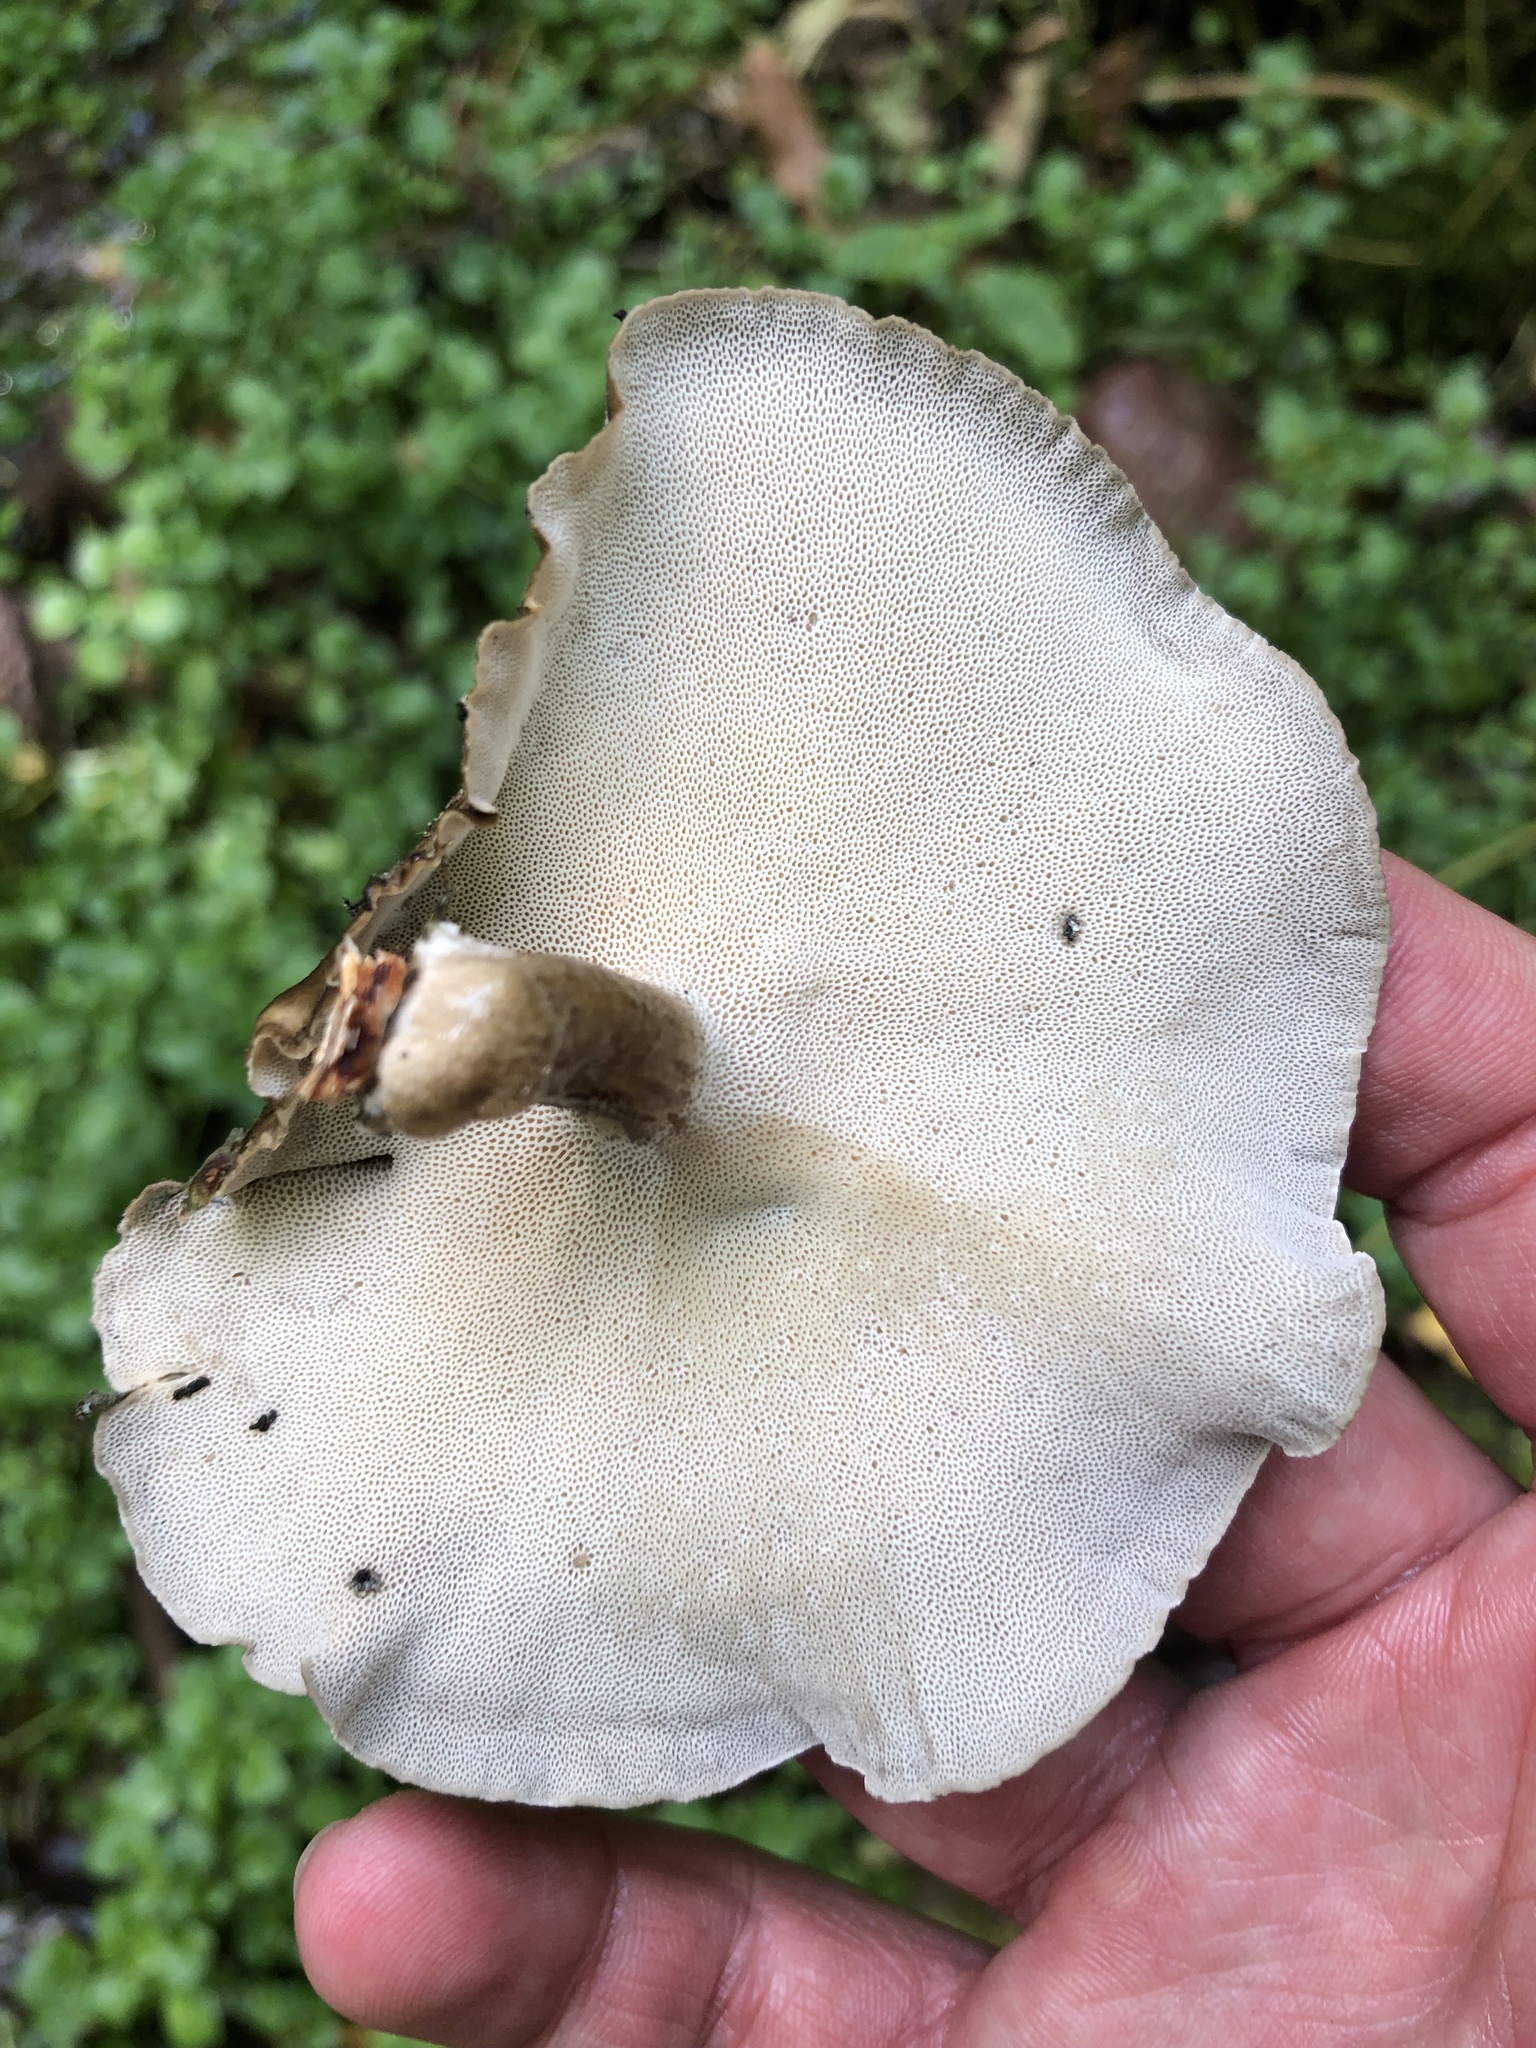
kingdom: Fungi
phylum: Basidiomycota
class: Agaricomycetes
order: Polyporales
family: Polyporaceae
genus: Lentinus
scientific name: Lentinus brumalis
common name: Winter polypore
